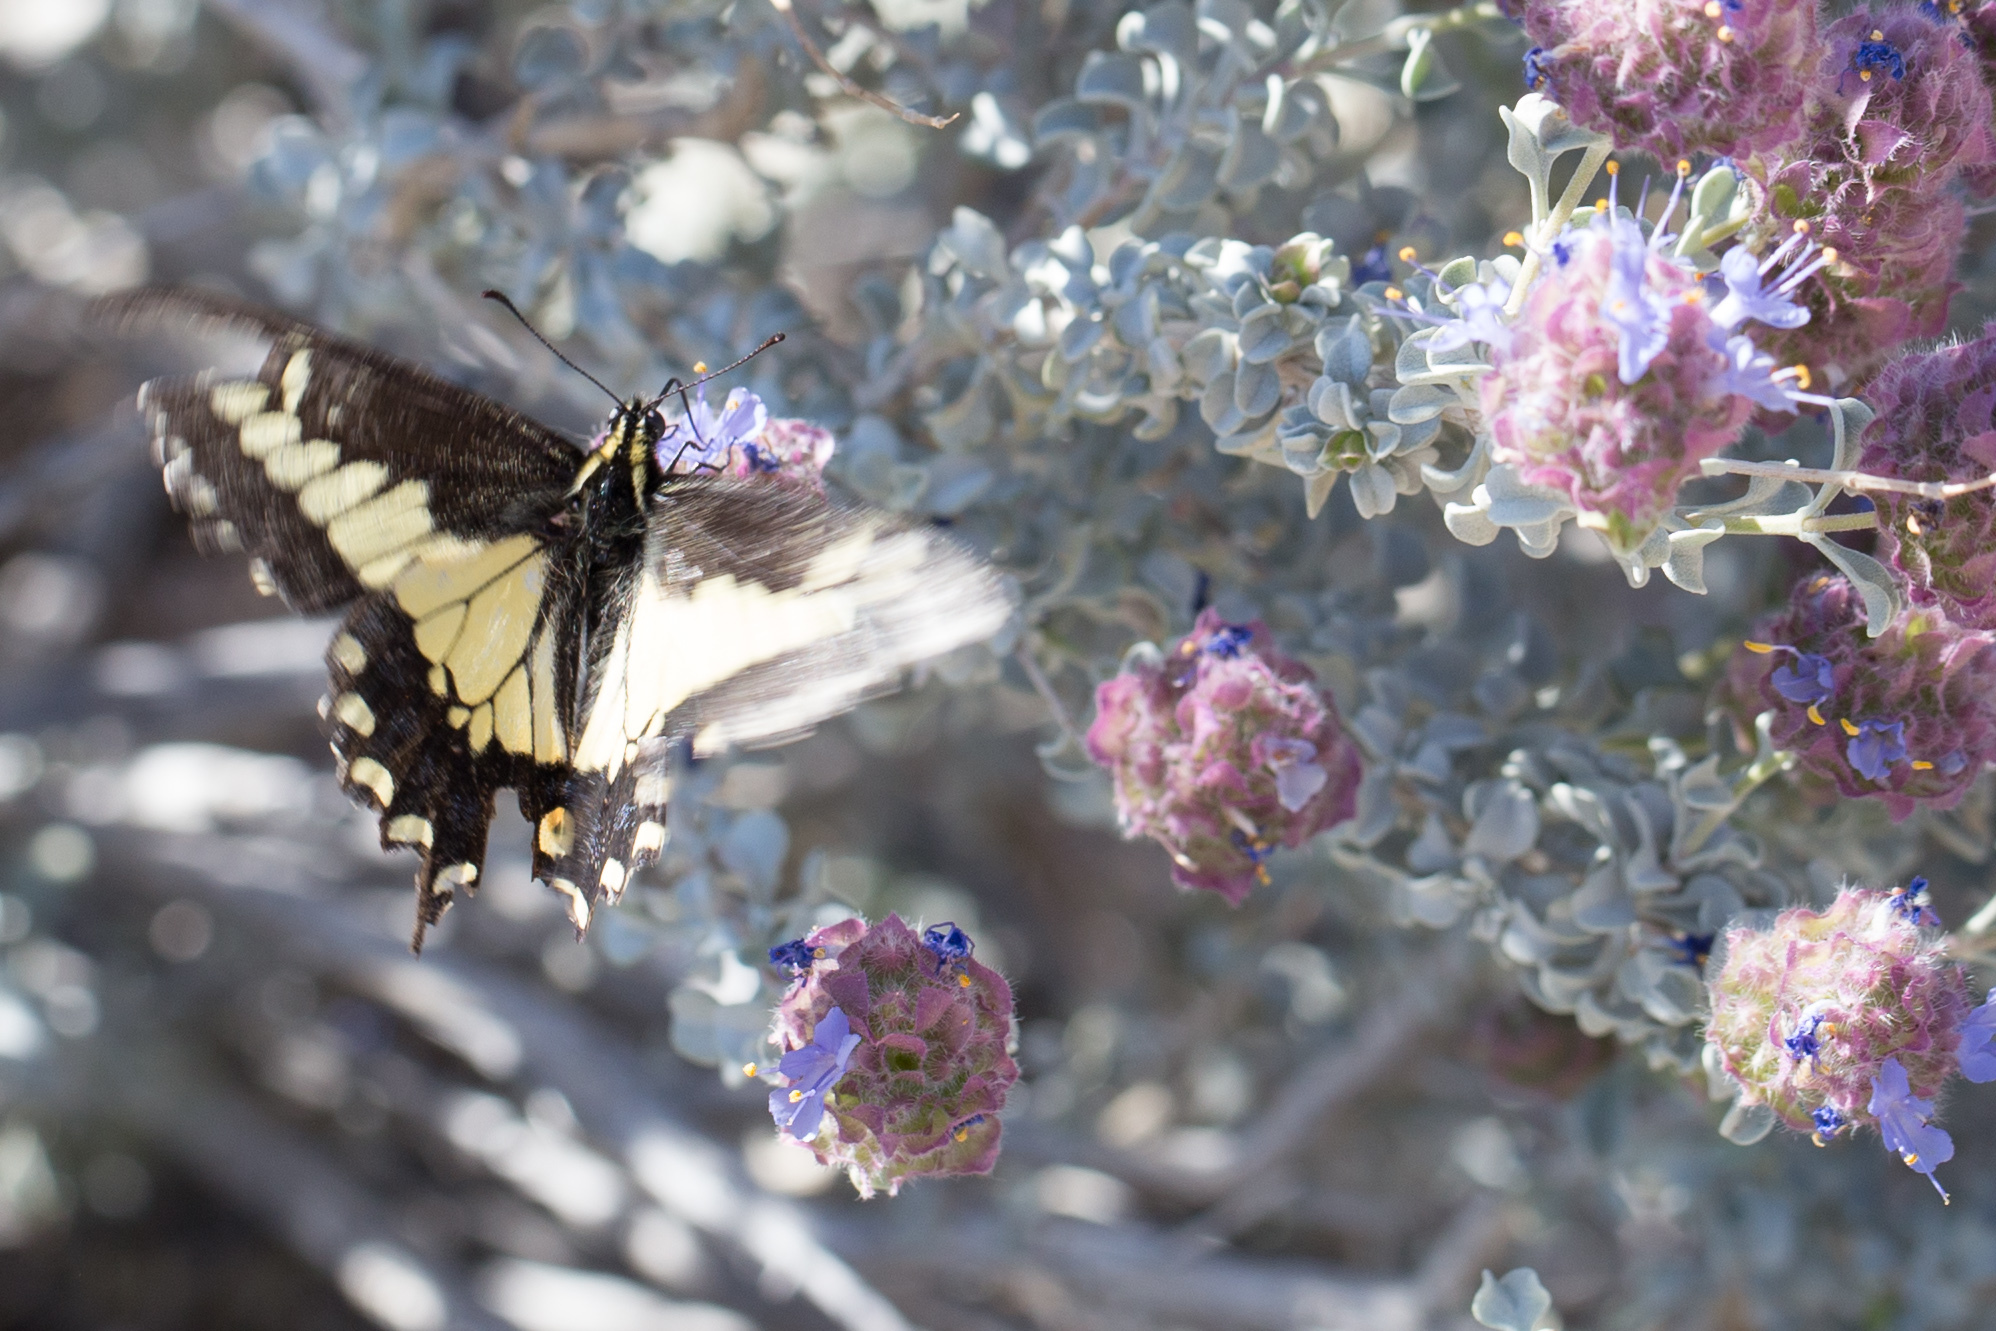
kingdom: Animalia
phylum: Arthropoda
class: Insecta
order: Lepidoptera
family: Papilionidae
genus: Papilio
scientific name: Papilio polyxenes
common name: Black swallowtail
